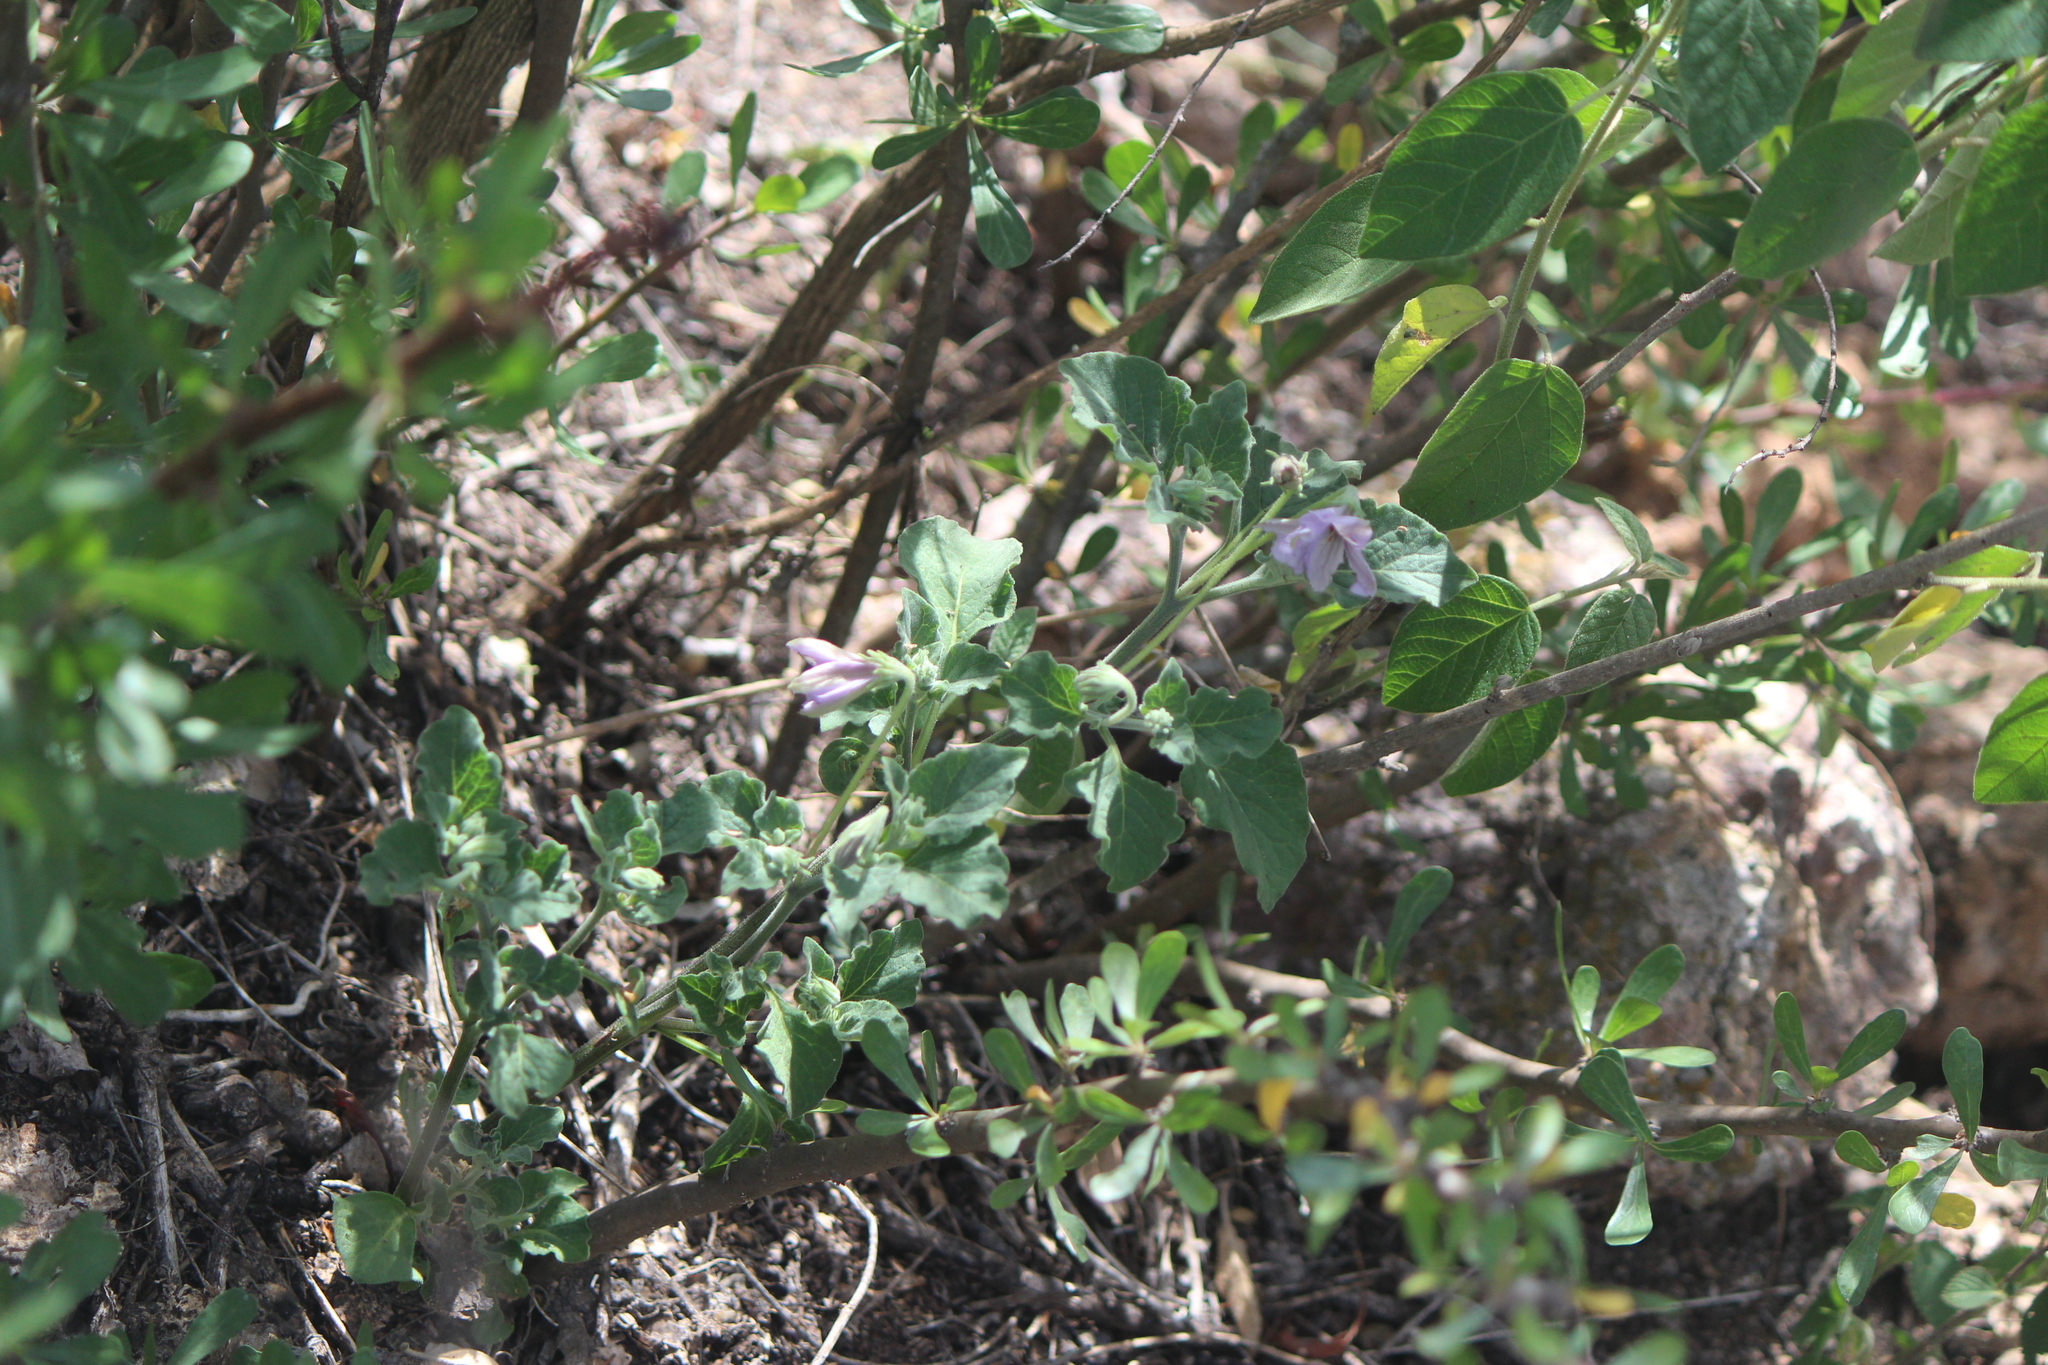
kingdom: Plantae
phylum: Tracheophyta
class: Magnoliopsida
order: Solanales
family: Solanaceae
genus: Lycianthes
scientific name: Lycianthes dejecta
